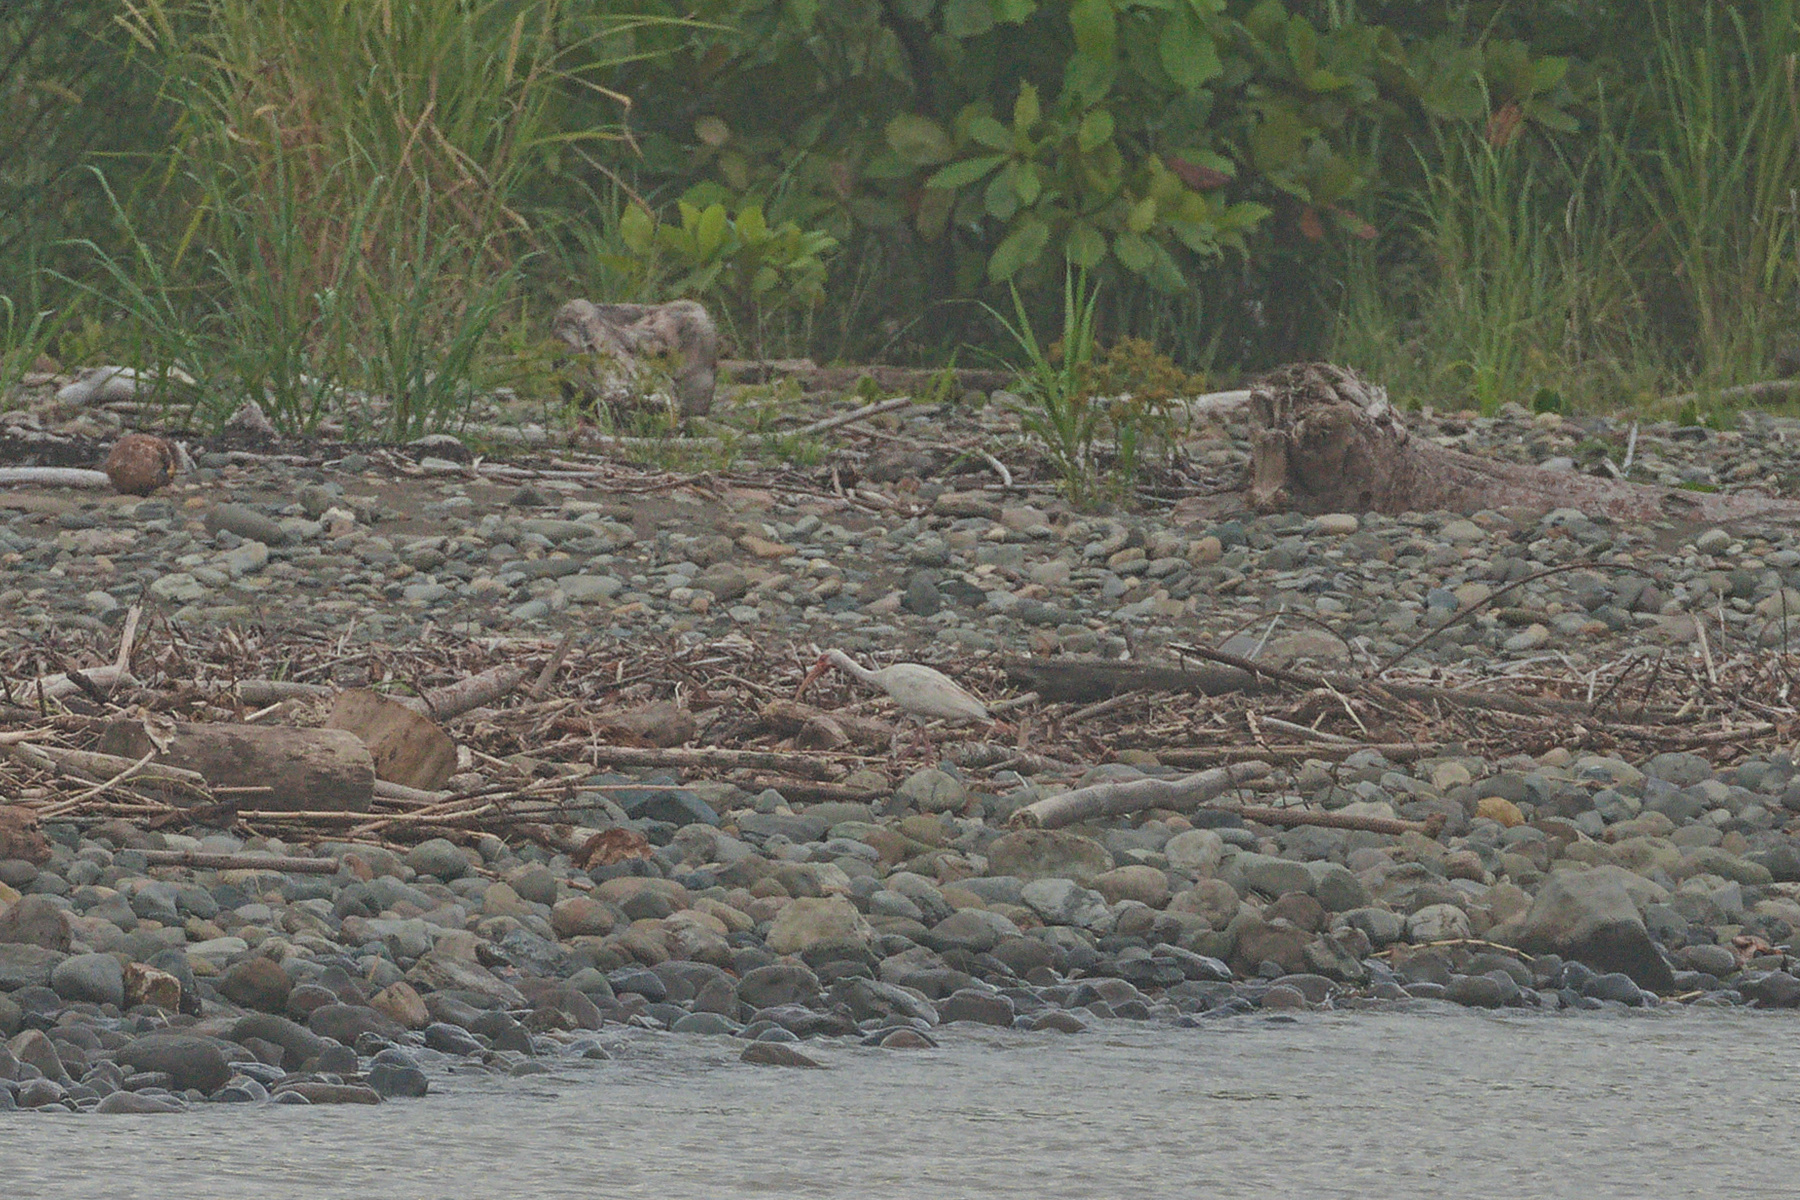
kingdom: Animalia
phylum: Chordata
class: Aves
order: Pelecaniformes
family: Threskiornithidae
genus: Eudocimus
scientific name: Eudocimus albus
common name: White ibis
